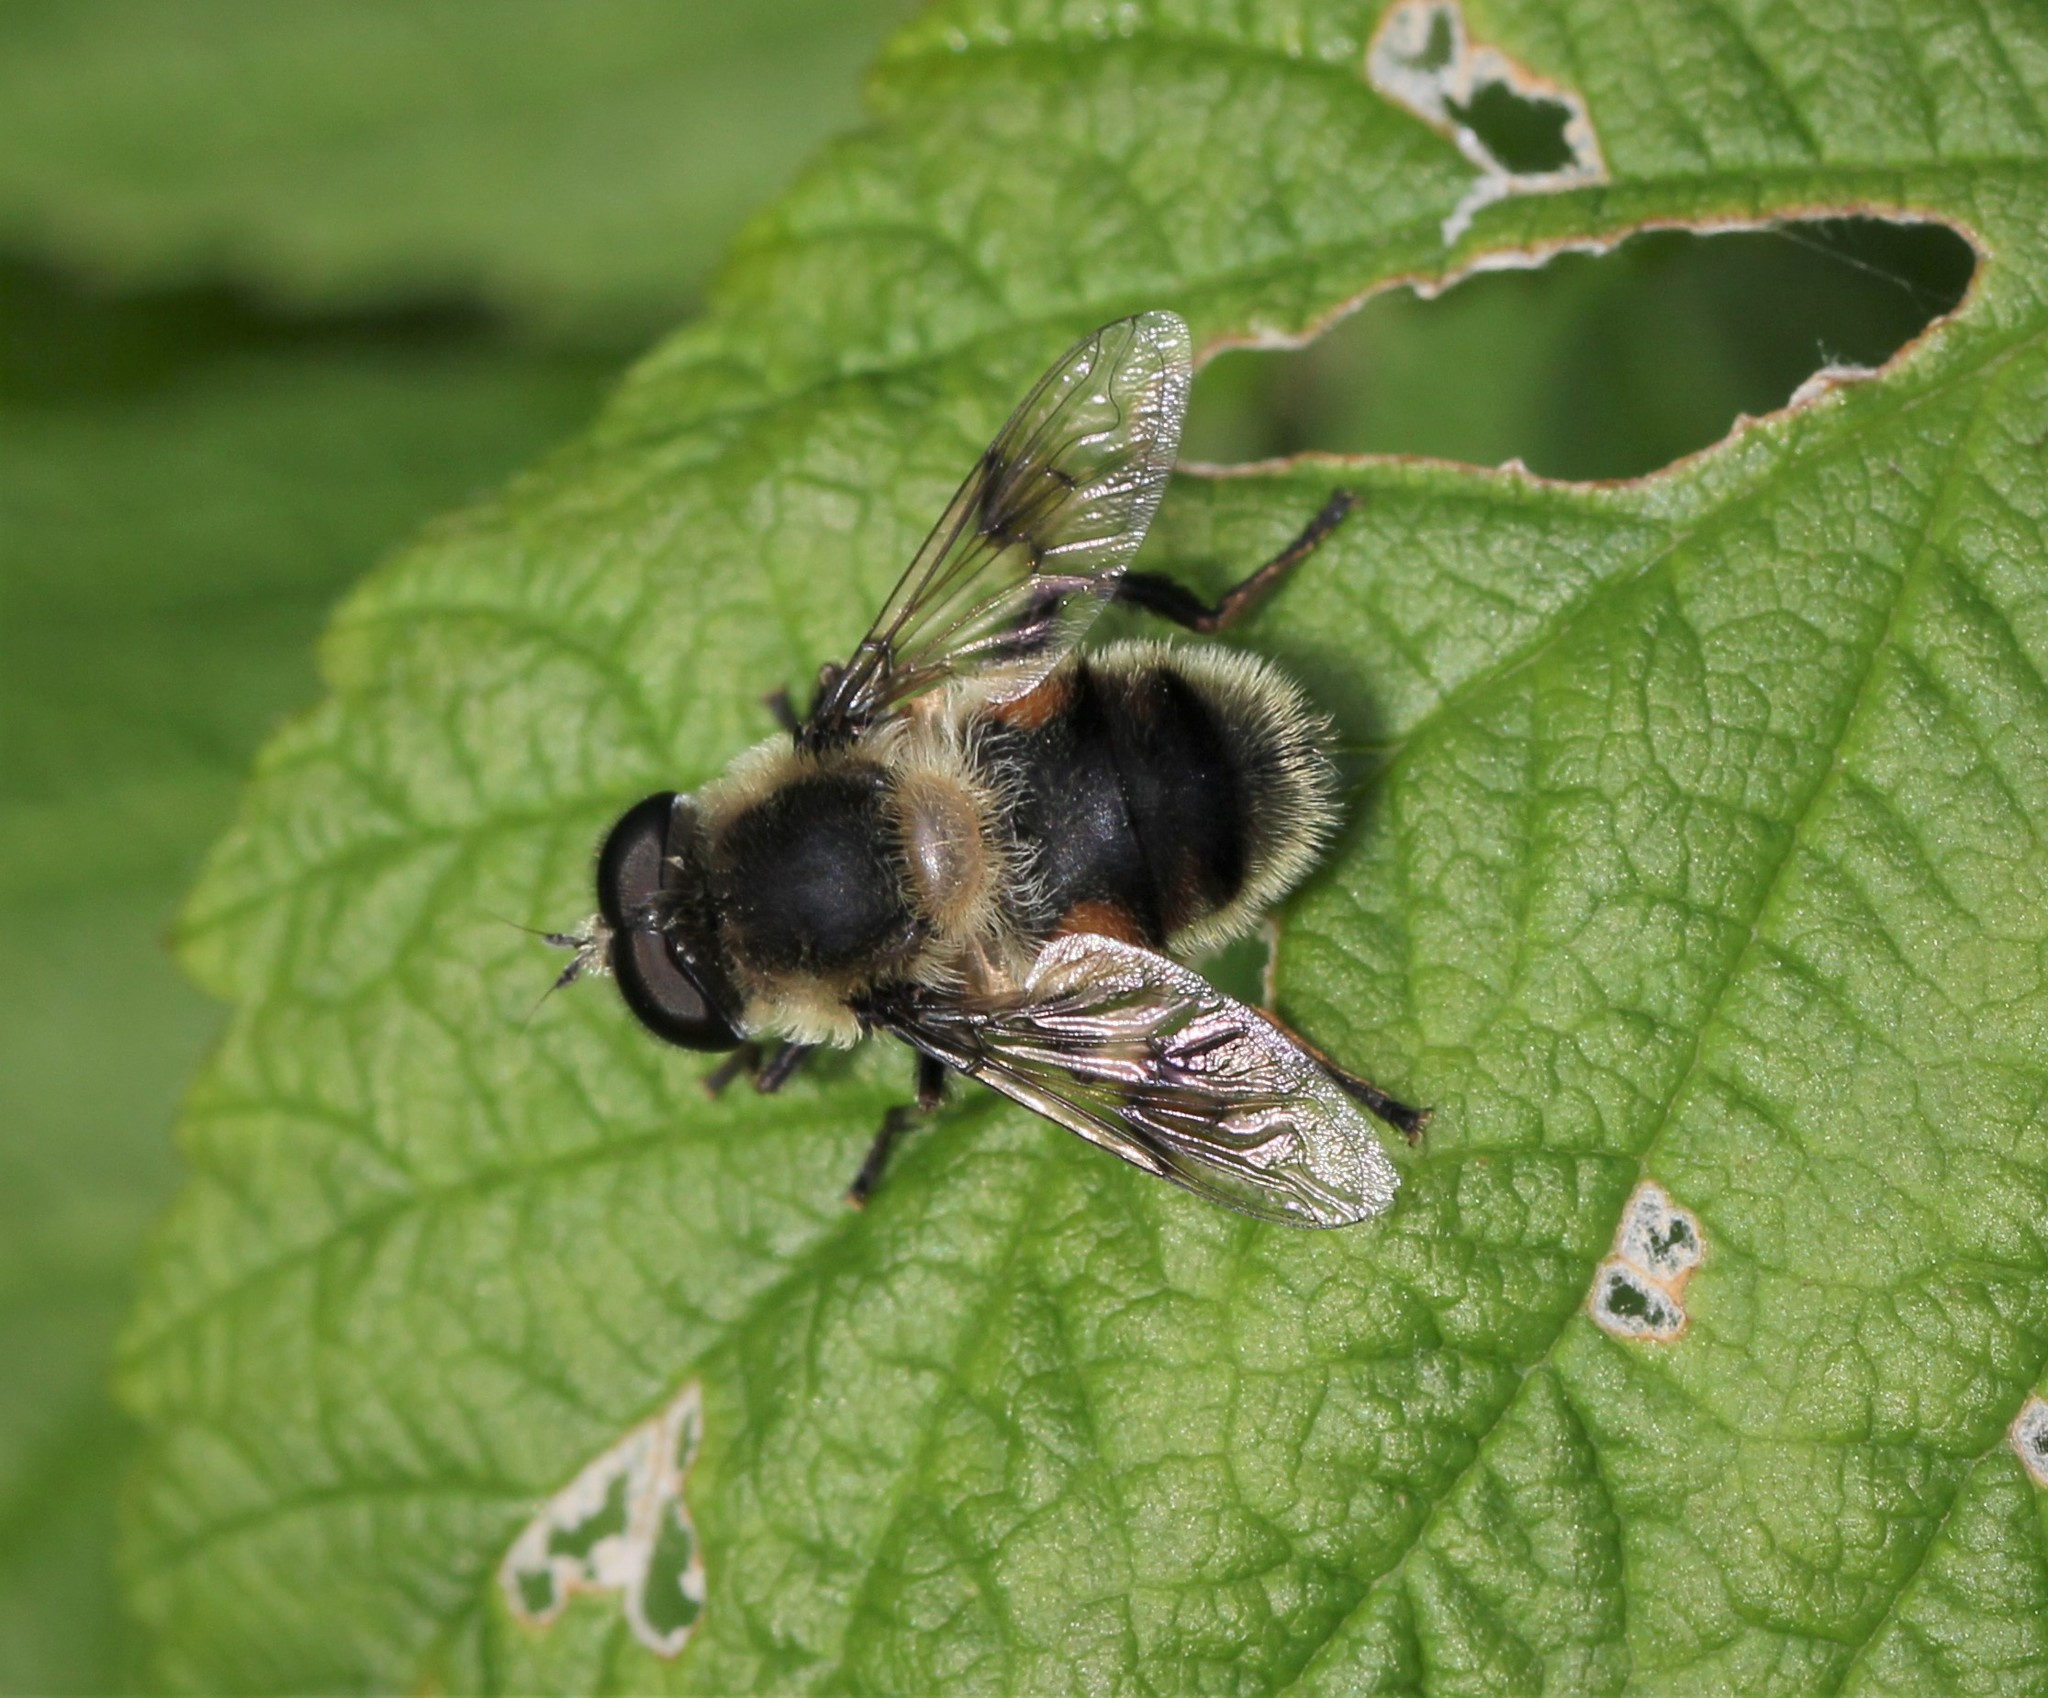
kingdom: Animalia
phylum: Arthropoda
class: Insecta
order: Diptera
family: Syrphidae
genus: Eristalis
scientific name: Eristalis anthophorina
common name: Orange-spotted drone fly
